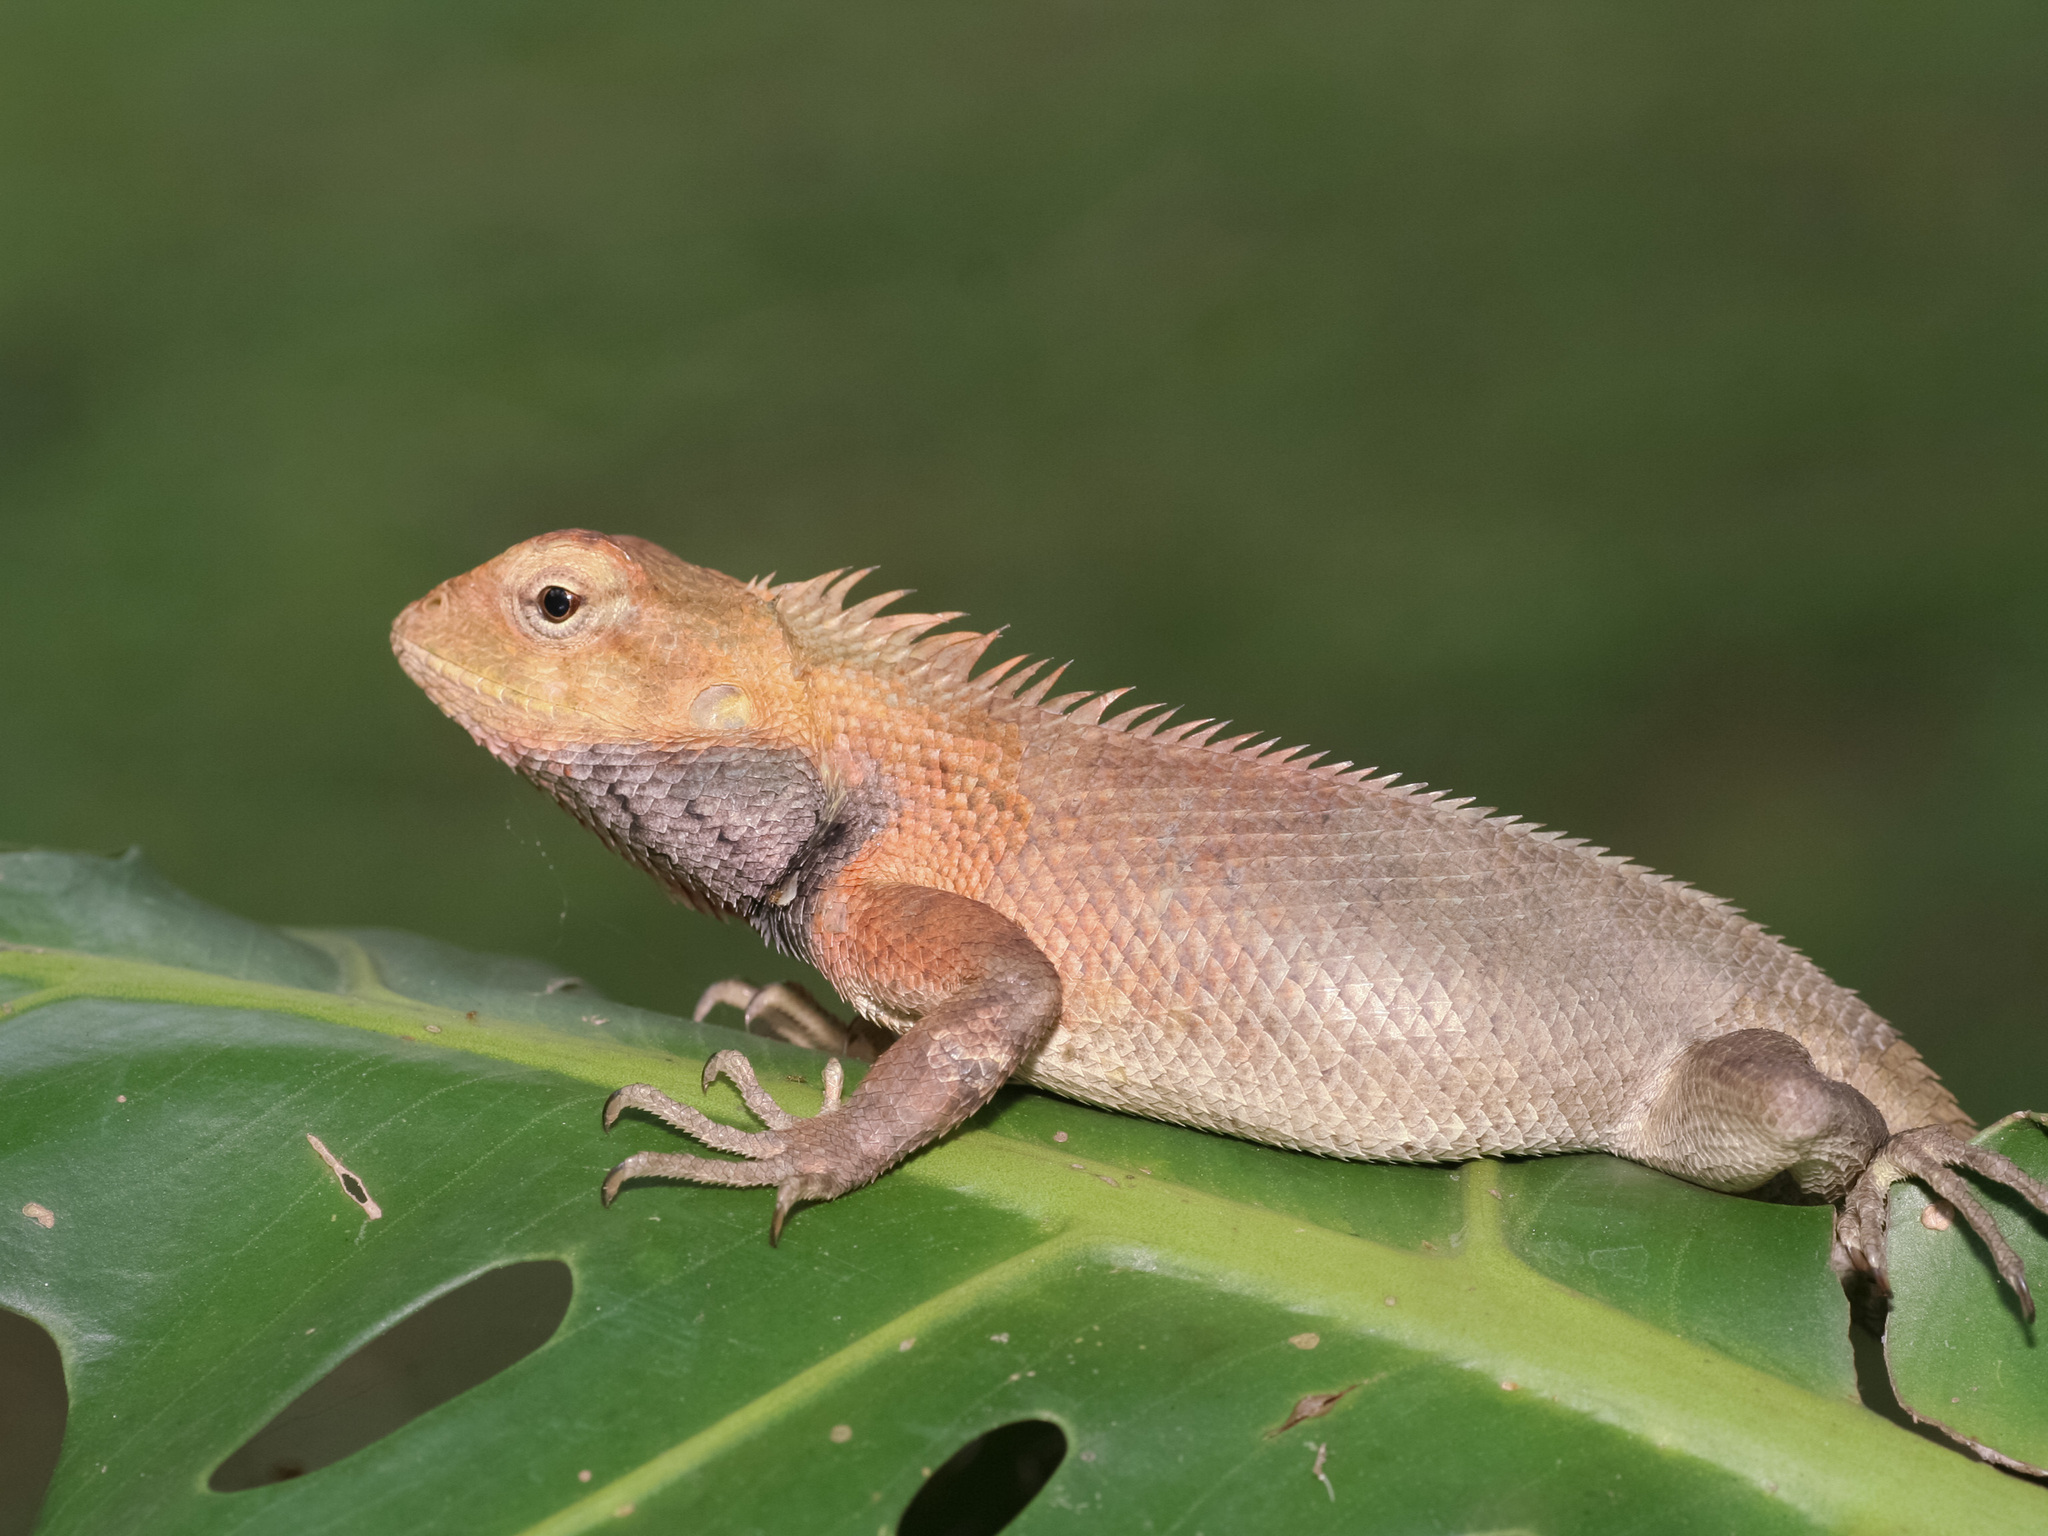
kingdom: Animalia
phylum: Chordata
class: Squamata
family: Agamidae
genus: Calotes
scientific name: Calotes versicolor
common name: Oriental garden lizard
